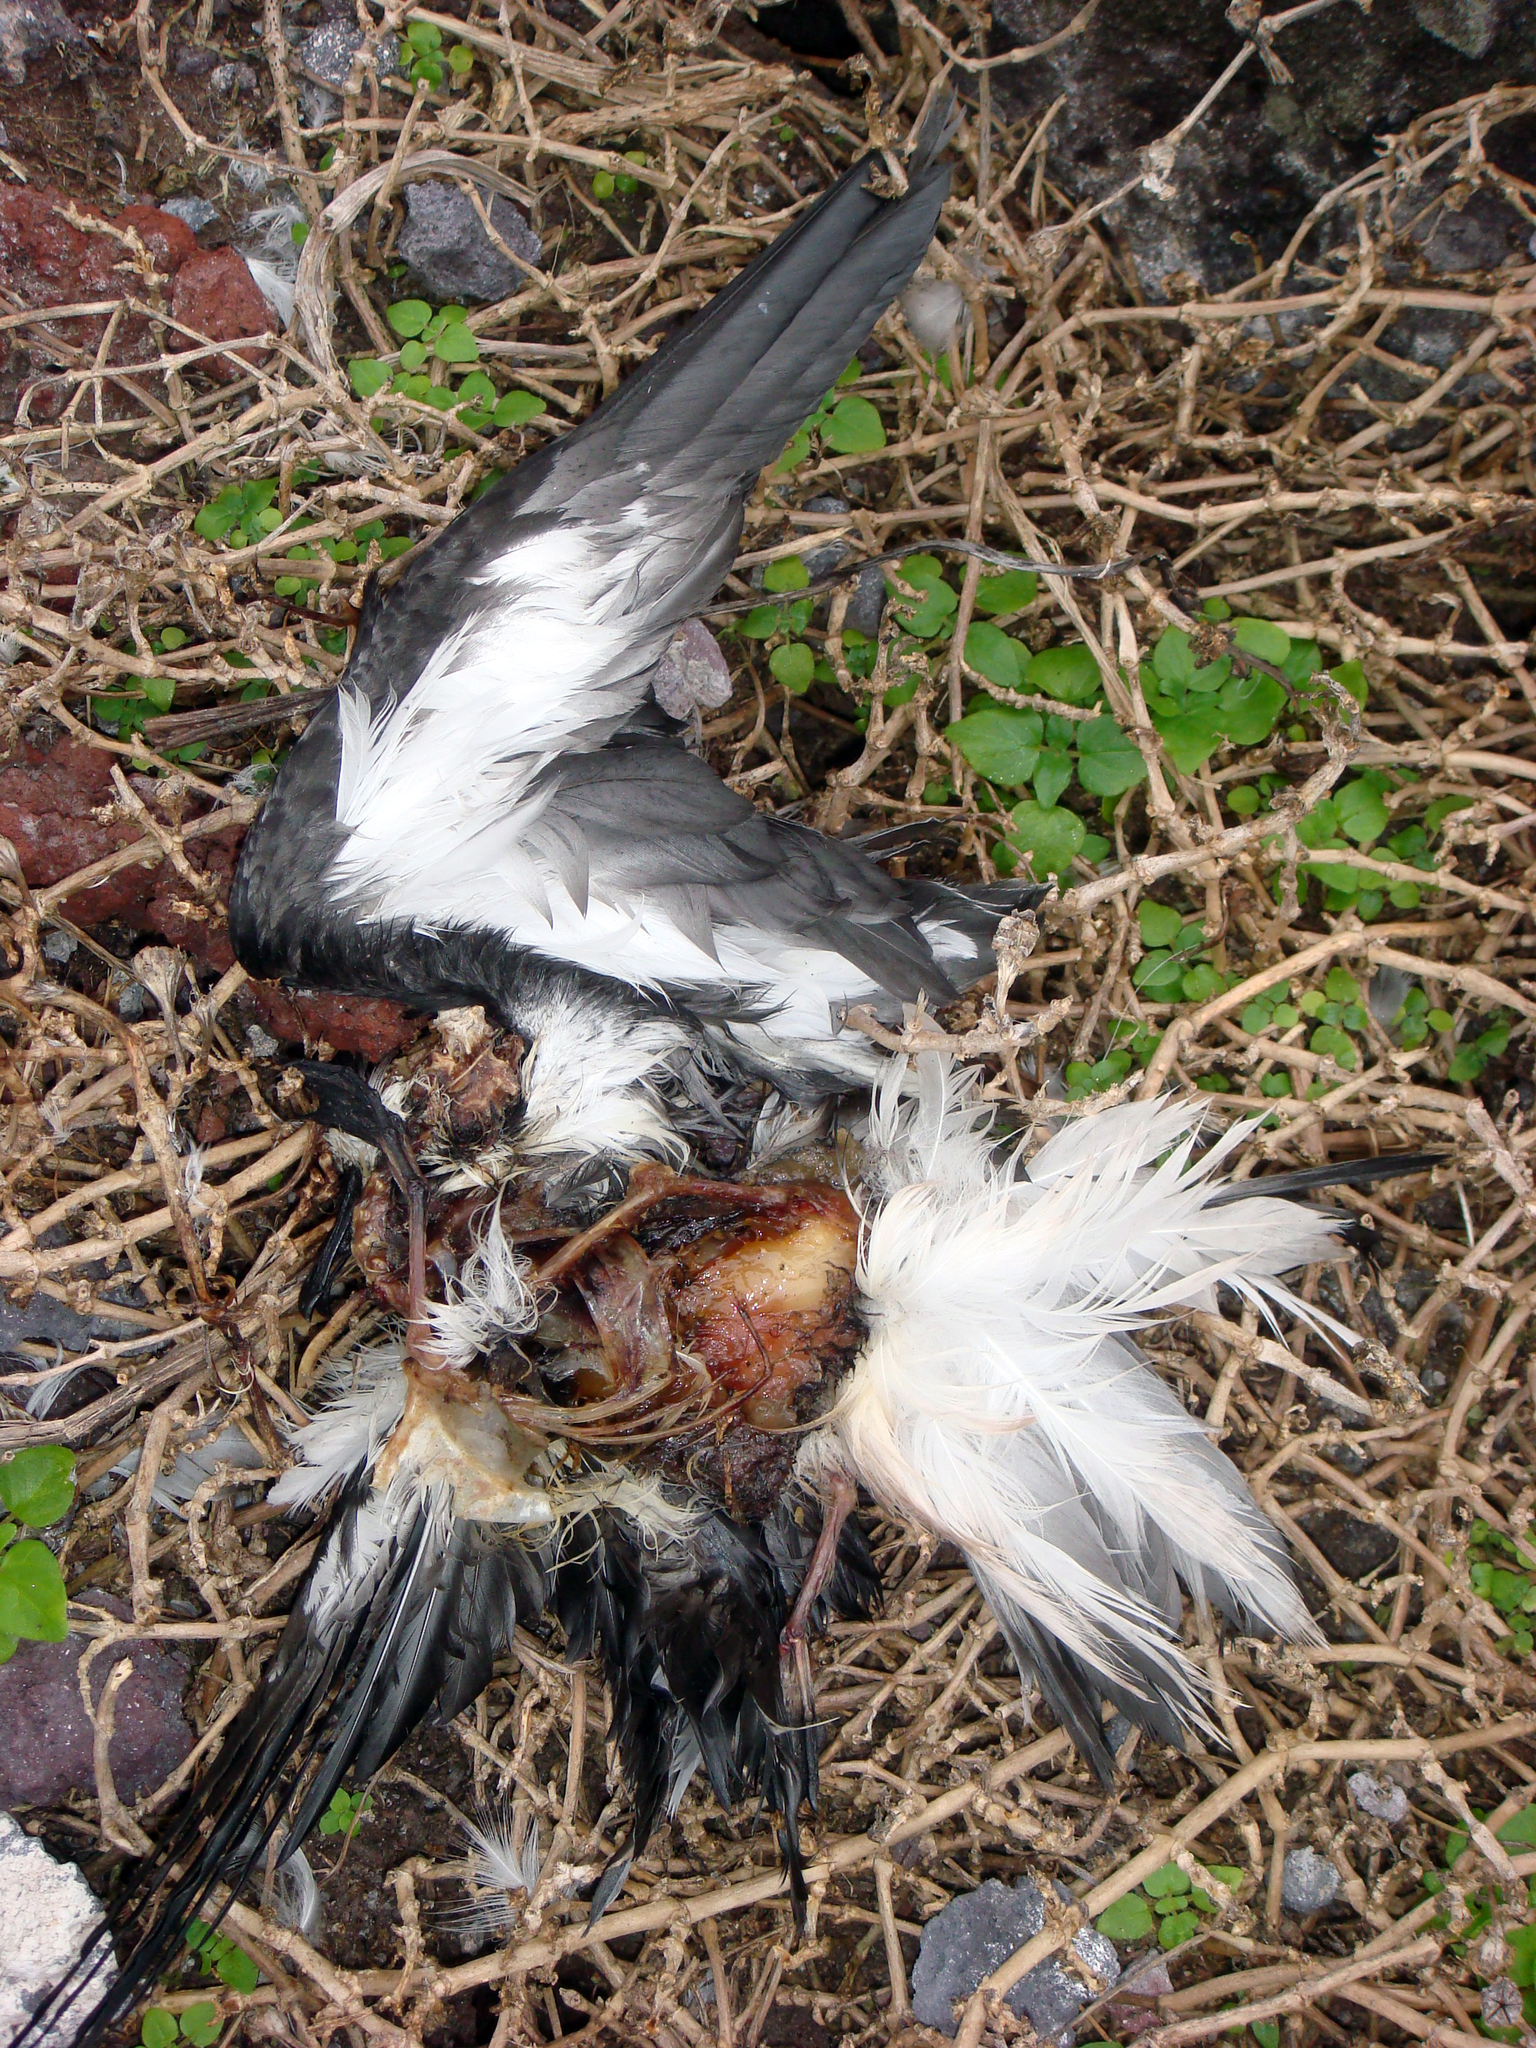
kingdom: Animalia
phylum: Chordata
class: Aves
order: Procellariiformes
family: Procellariidae
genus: Pterodroma
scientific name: Pterodroma nigripennis
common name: Black-winged petrel
